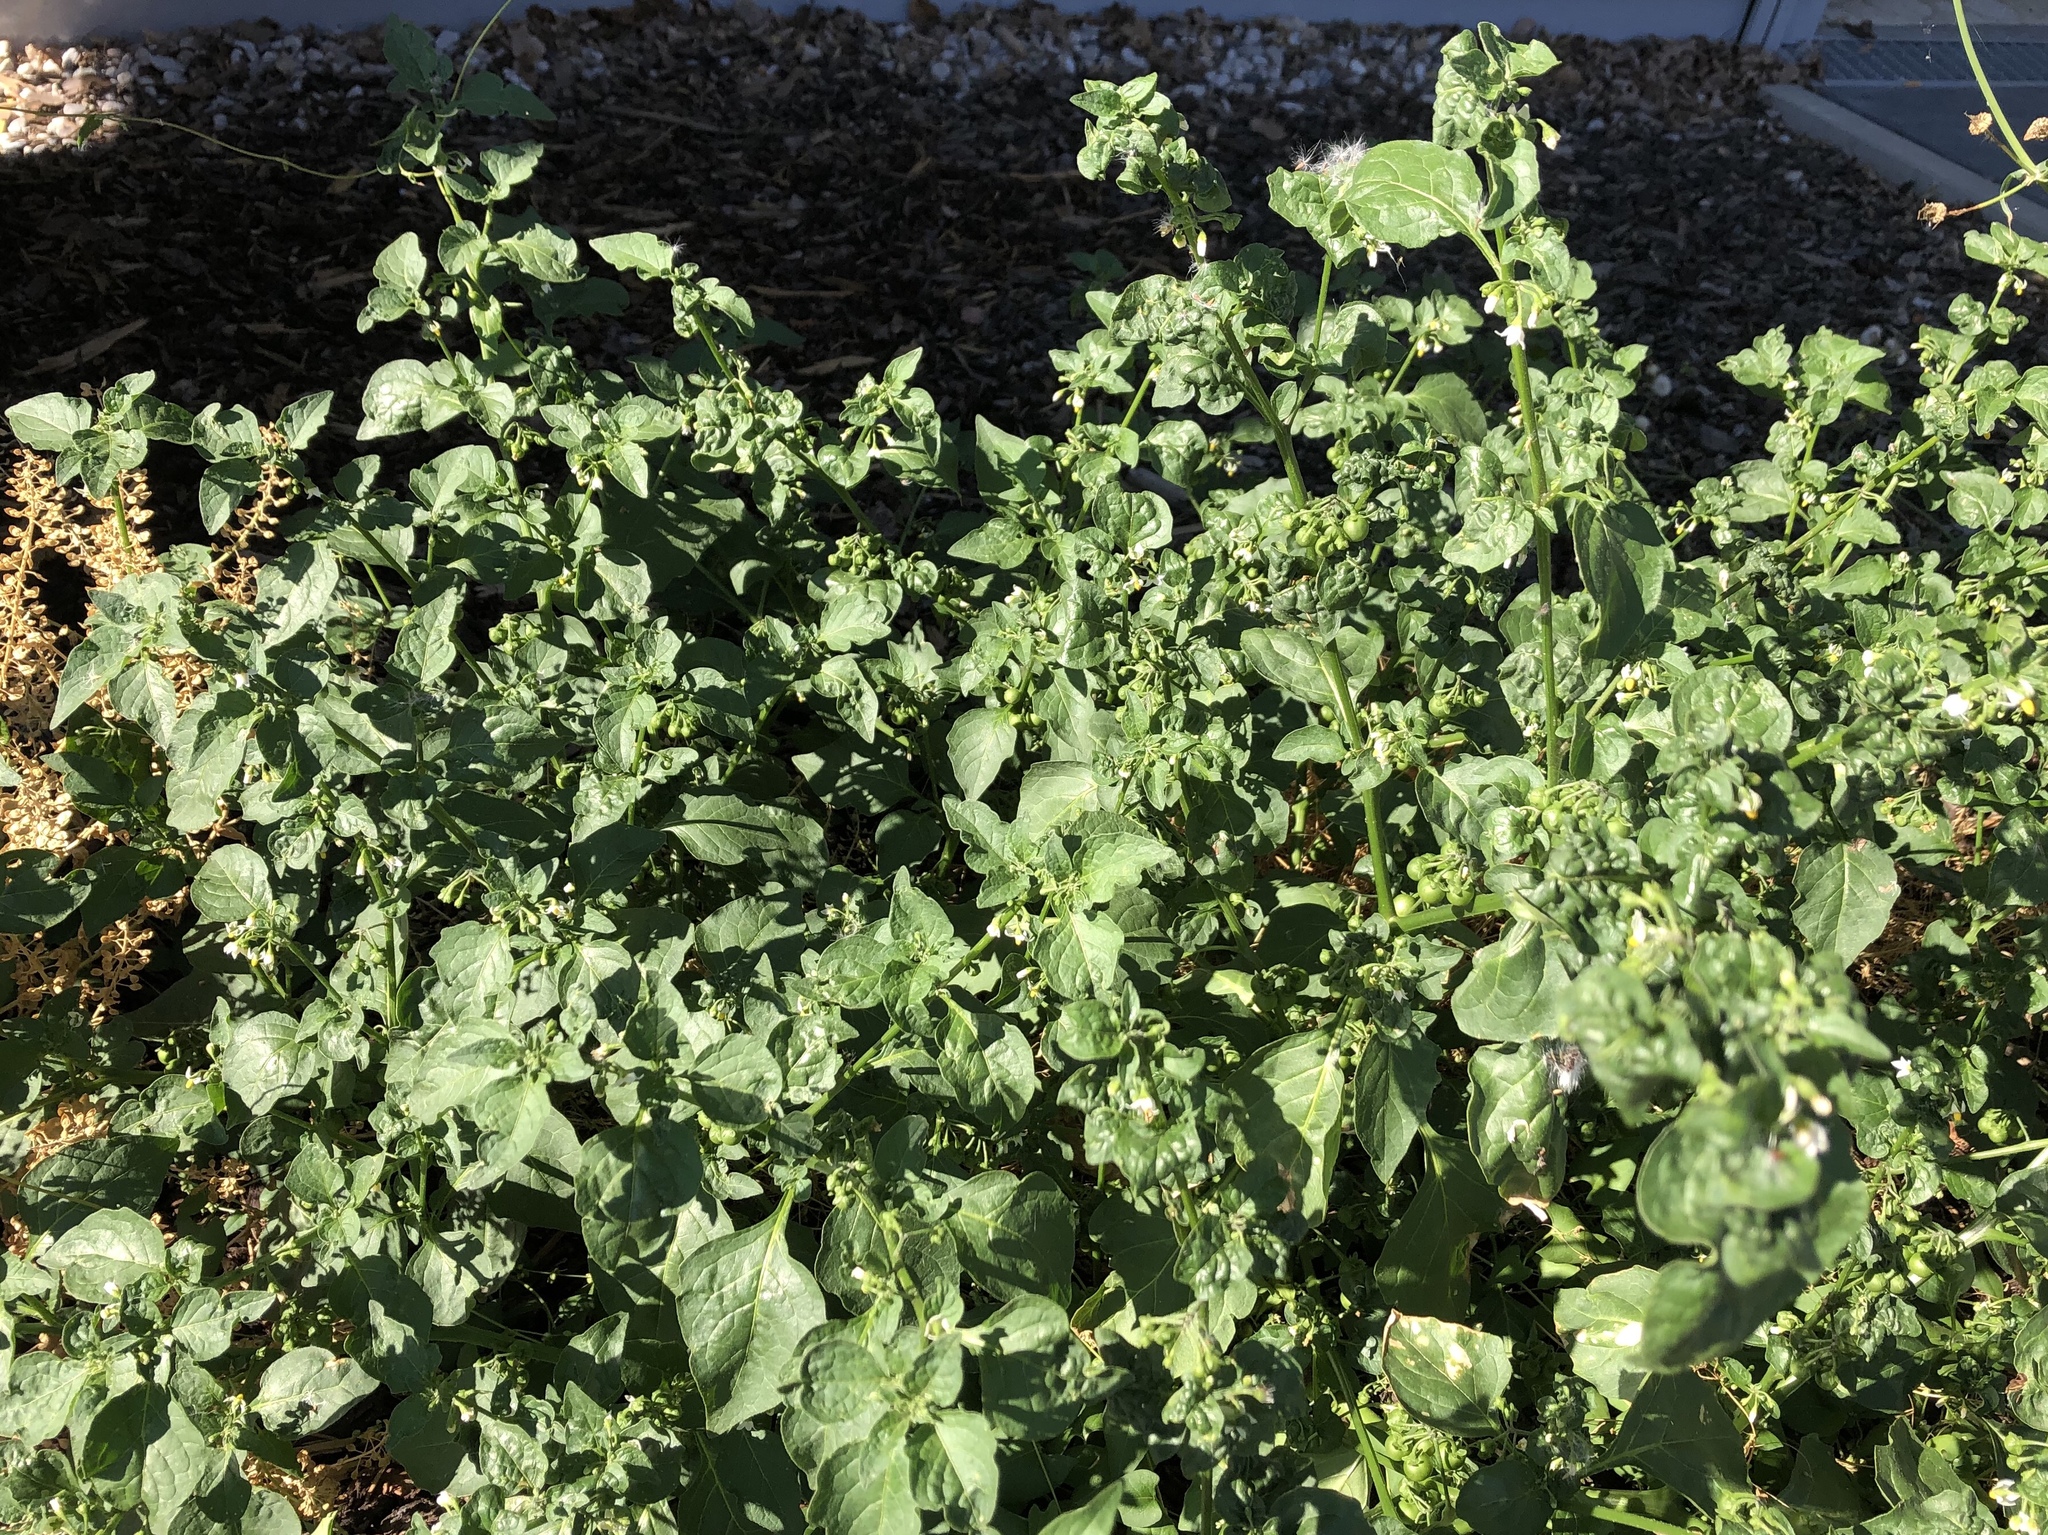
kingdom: Plantae
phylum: Tracheophyta
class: Magnoliopsida
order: Solanales
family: Solanaceae
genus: Solanum
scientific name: Solanum nigrum
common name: Black nightshade
